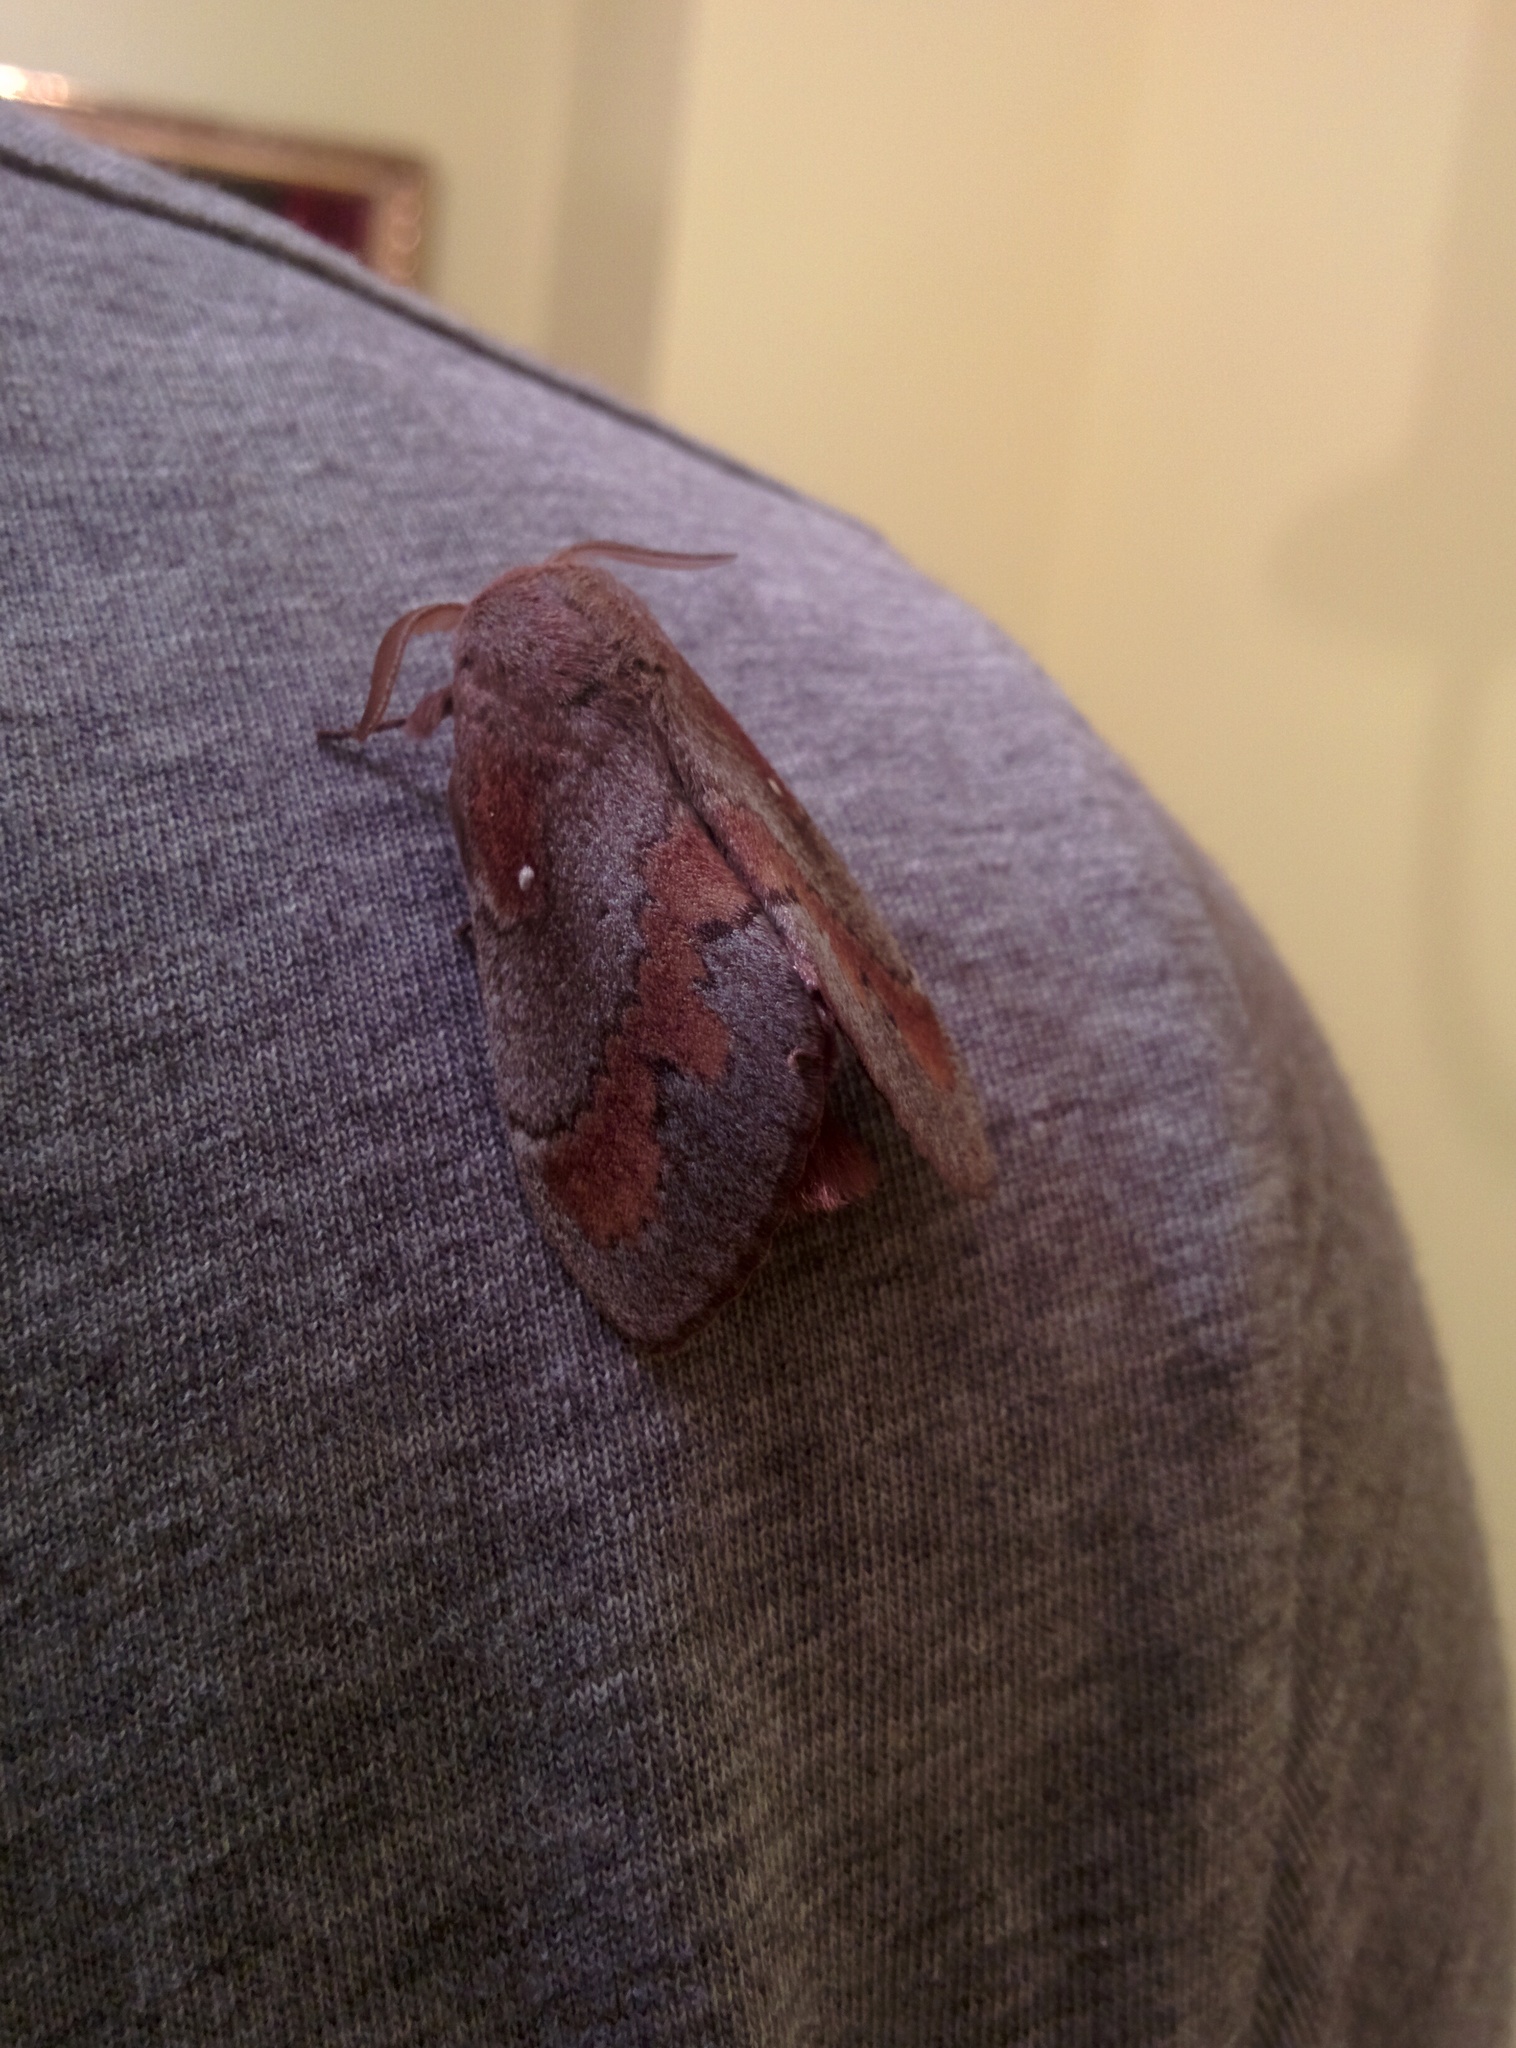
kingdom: Animalia
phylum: Arthropoda
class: Insecta
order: Lepidoptera
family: Lasiocampidae
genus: Dendrolimus
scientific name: Dendrolimus pini
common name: Pine-tree lappet
